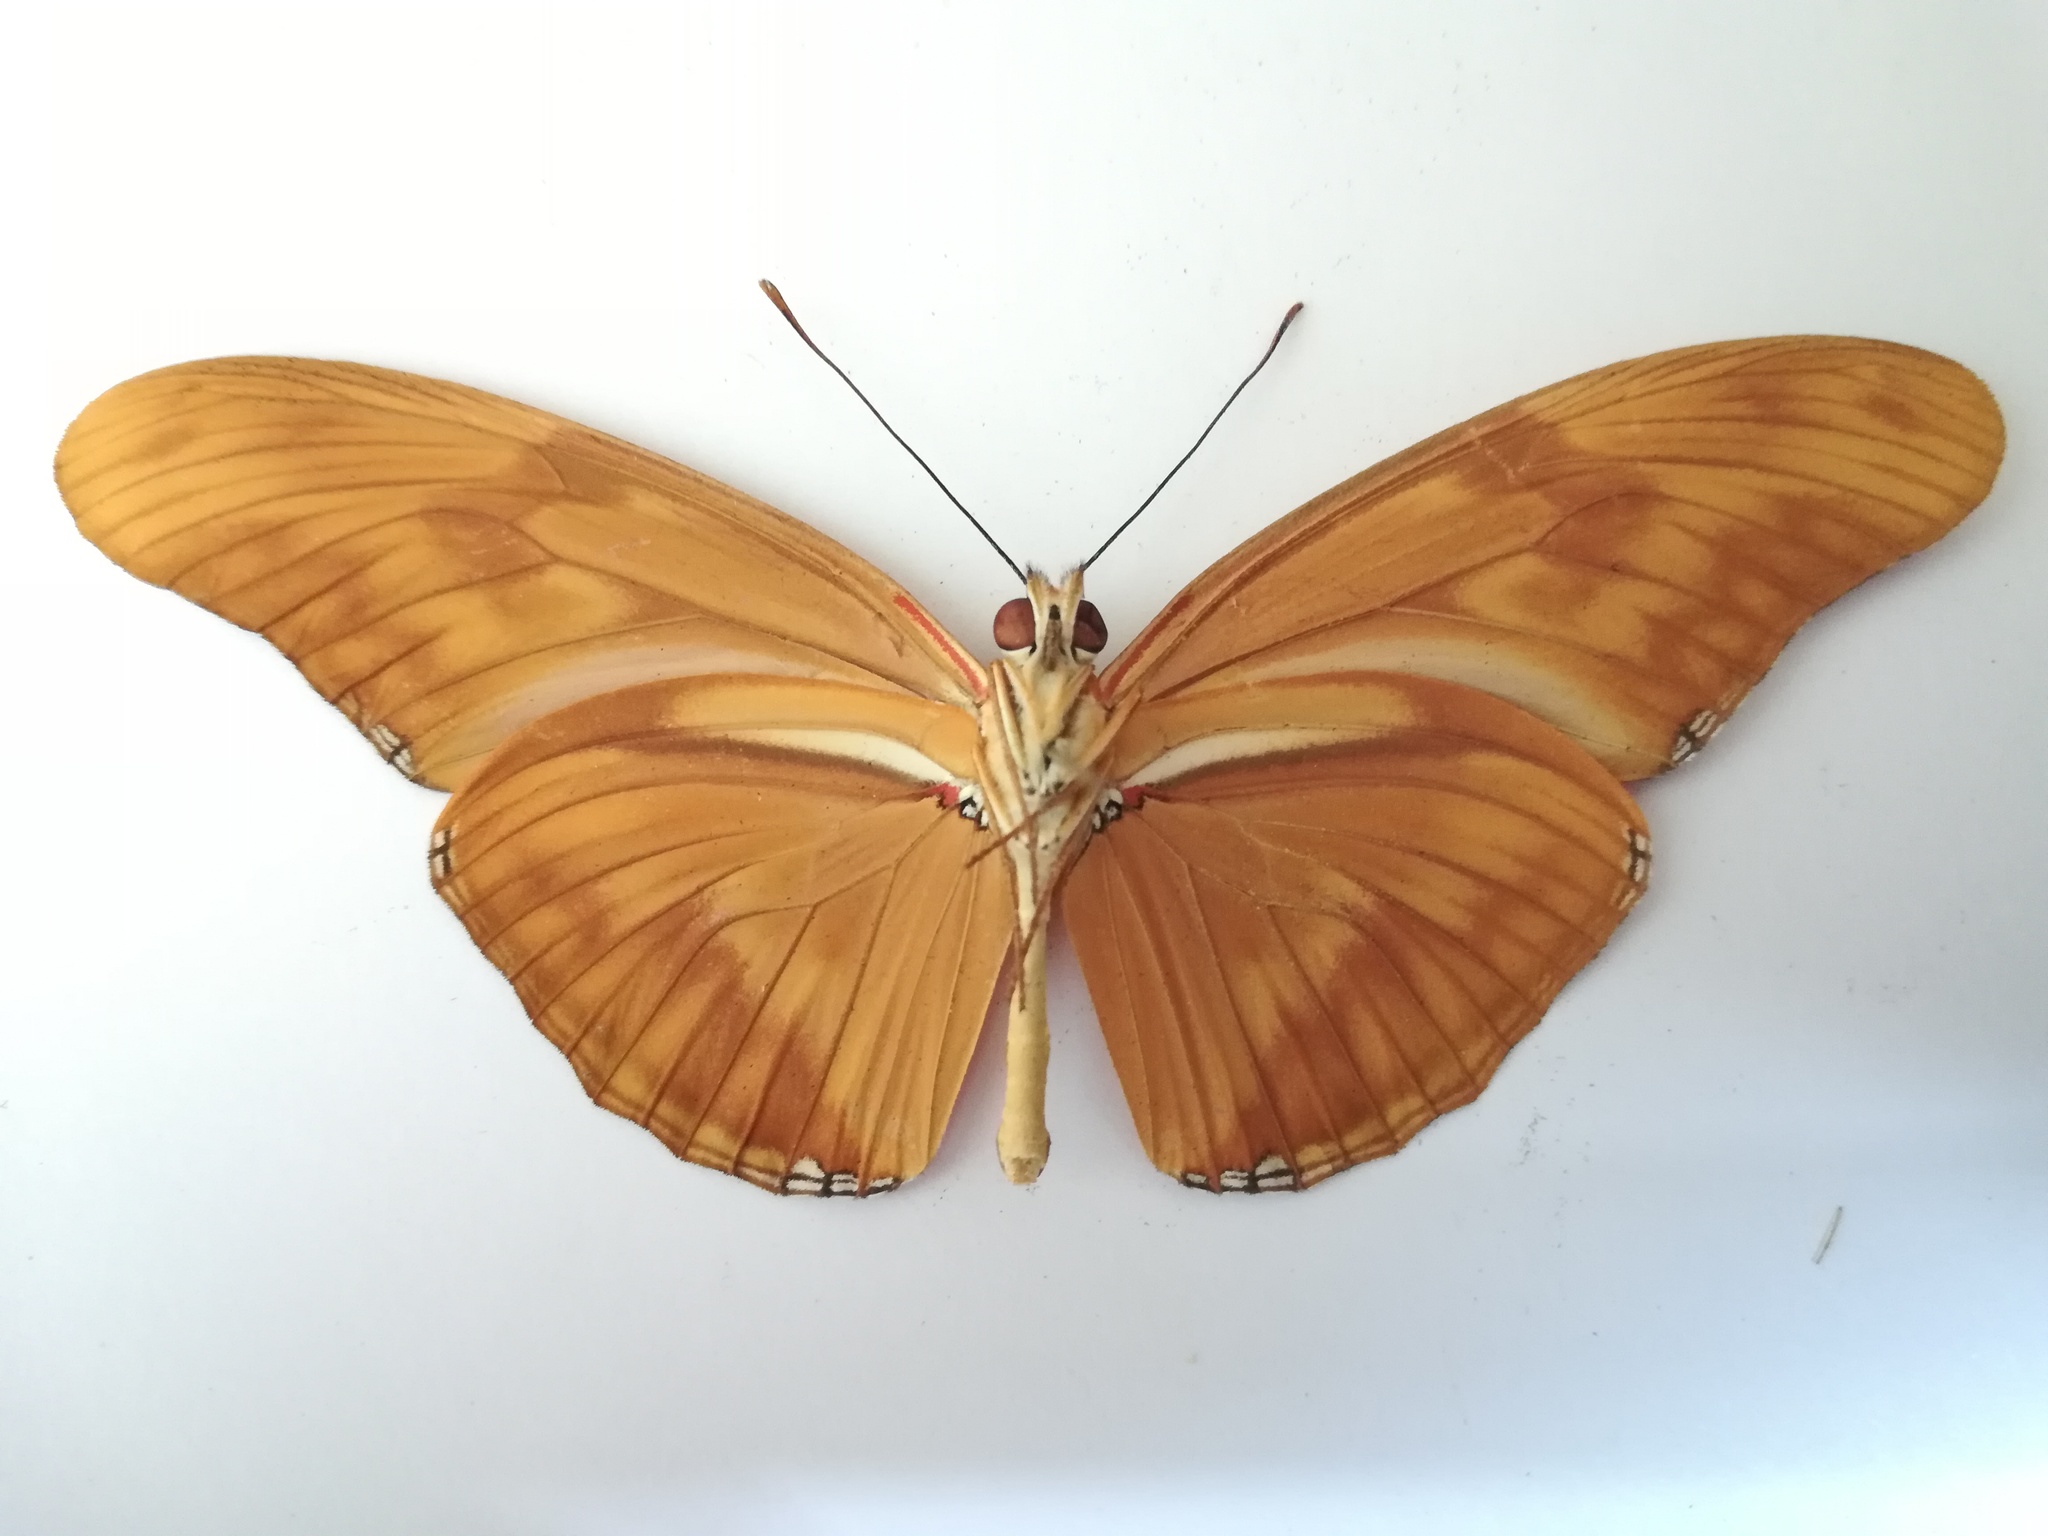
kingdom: Animalia
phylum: Arthropoda
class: Insecta
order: Lepidoptera
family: Nymphalidae
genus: Dryas
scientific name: Dryas iulia
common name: Flambeau
